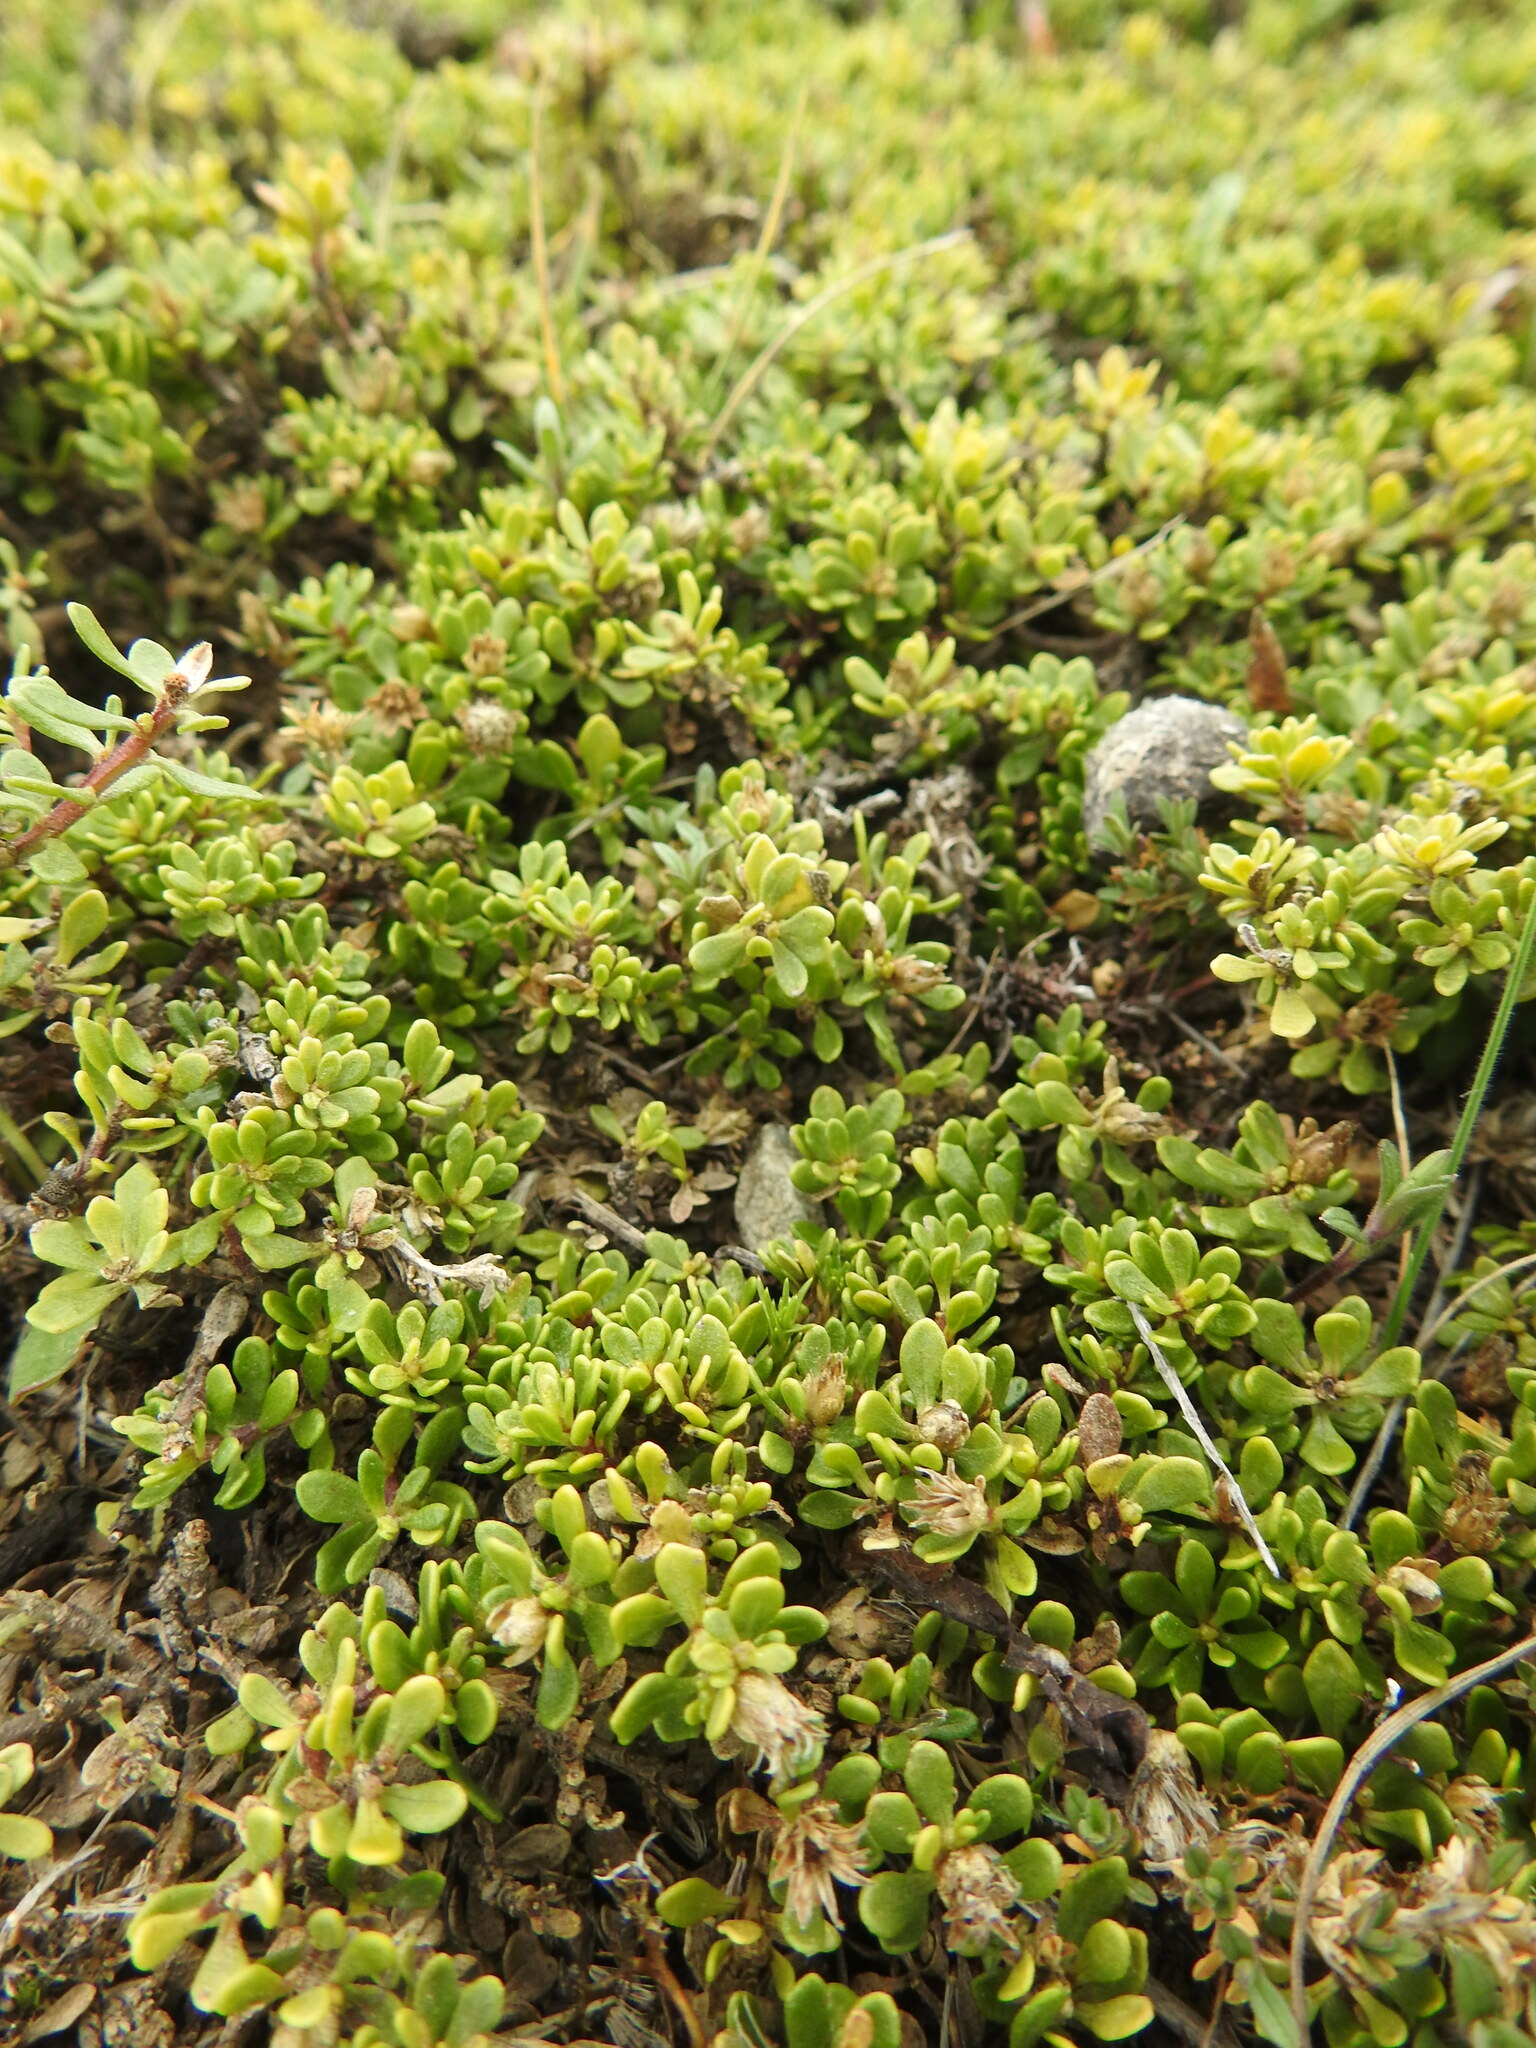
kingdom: Plantae
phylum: Tracheophyta
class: Magnoliopsida
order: Asterales
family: Asteraceae
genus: Baccharis
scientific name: Baccharis magellanica
